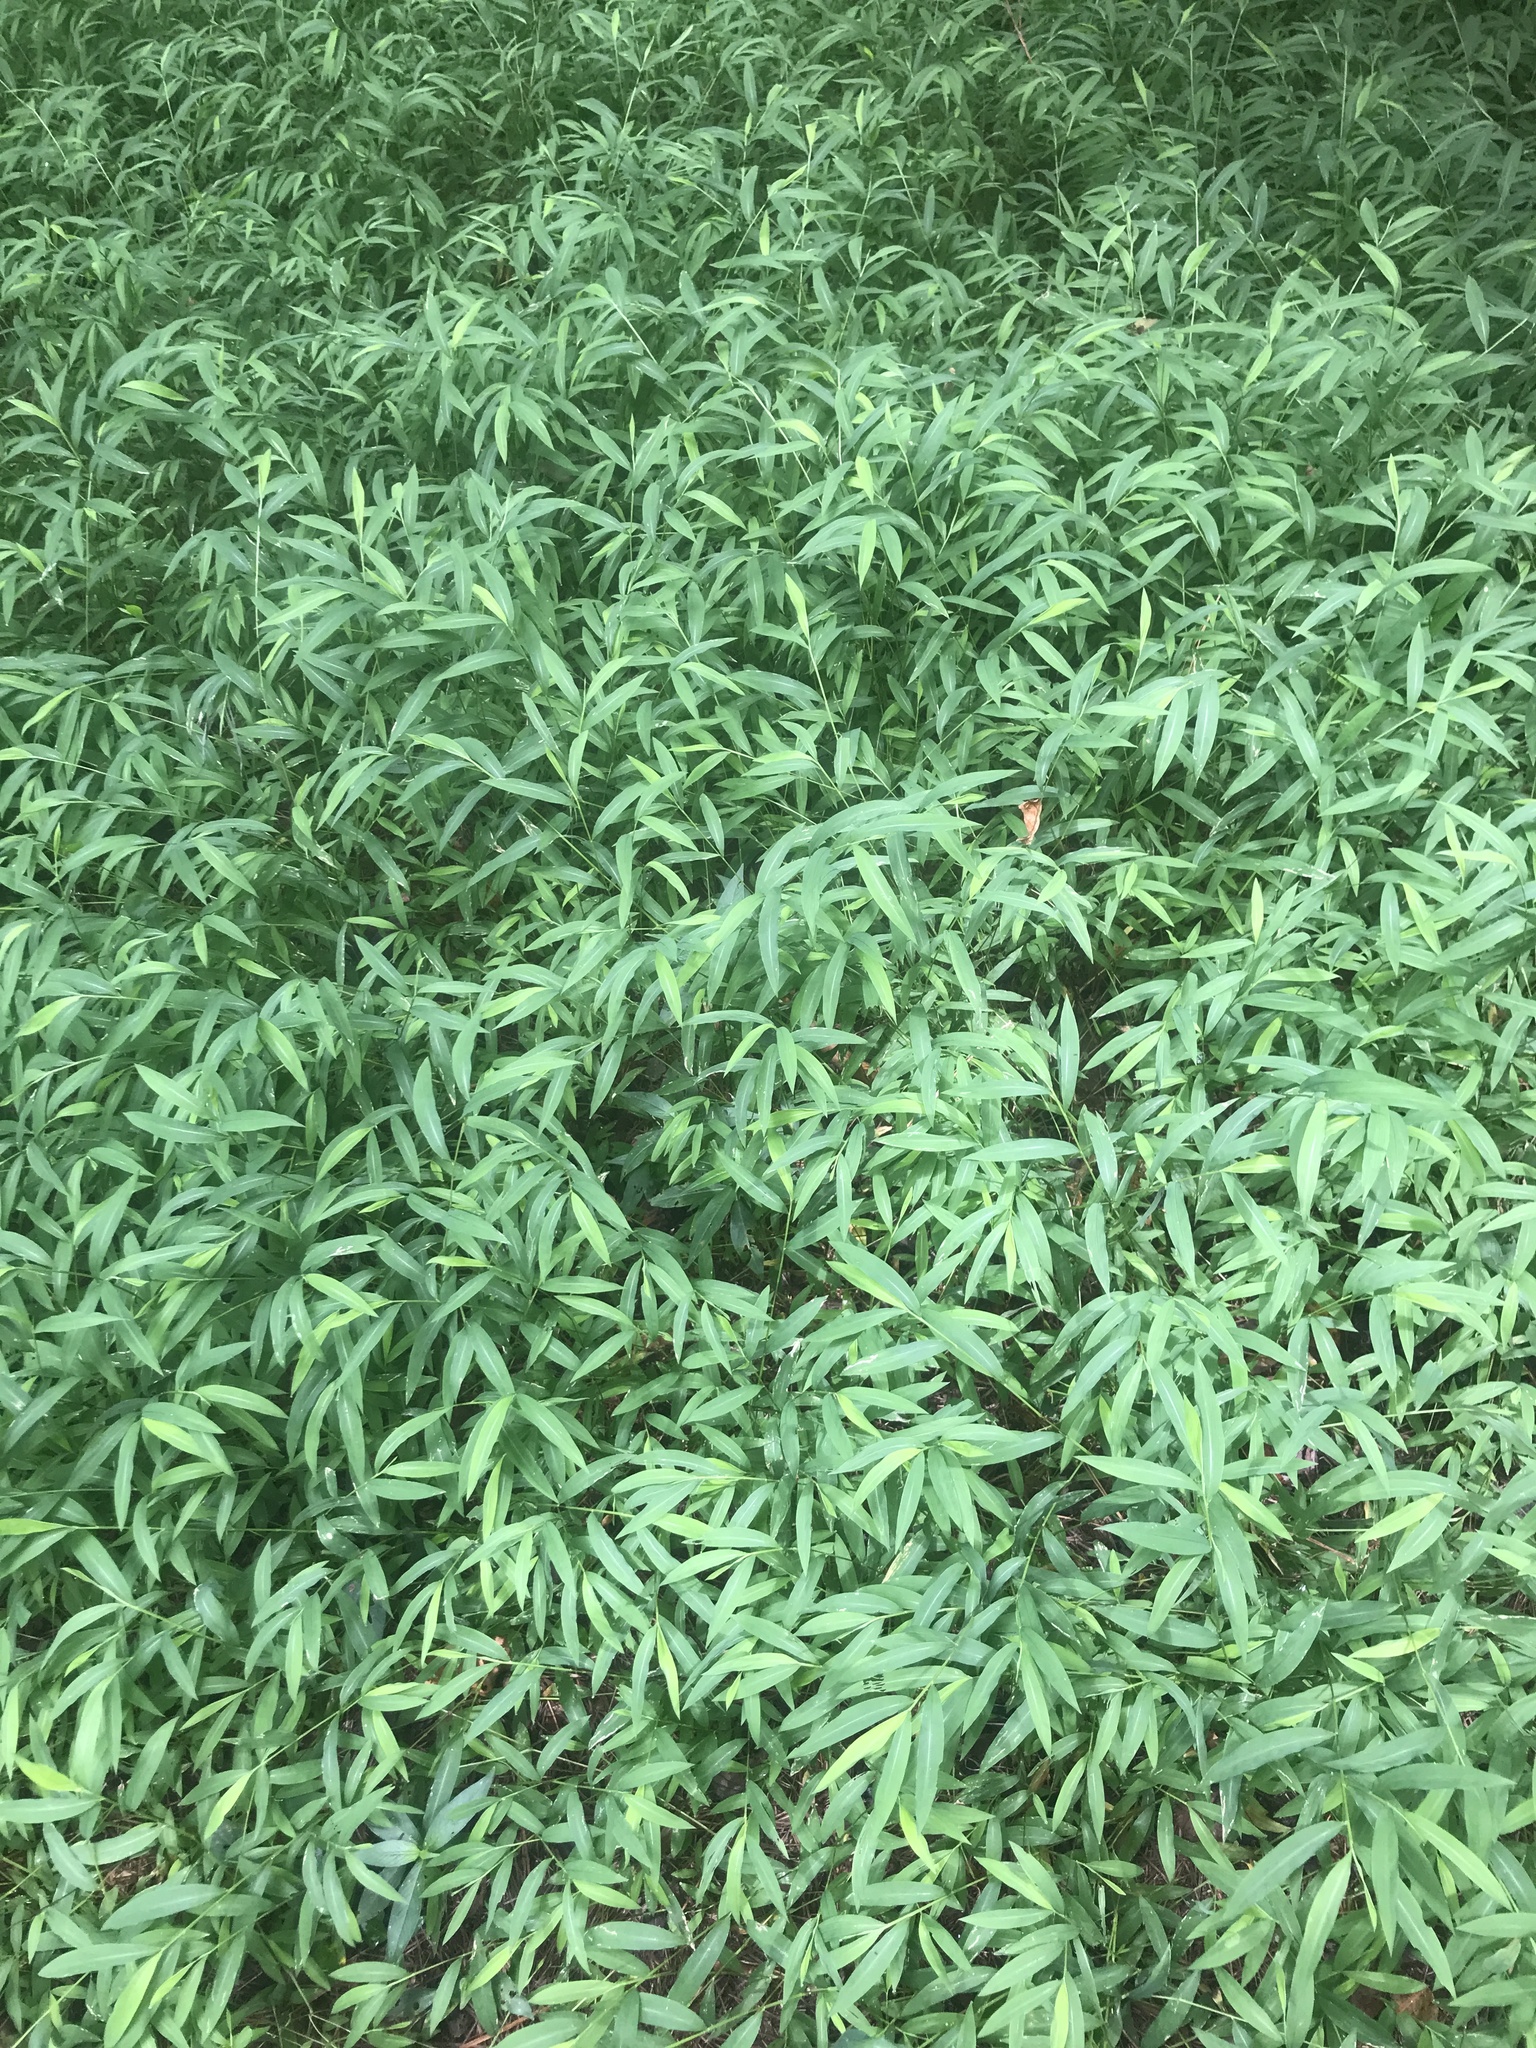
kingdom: Plantae
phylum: Tracheophyta
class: Liliopsida
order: Poales
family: Poaceae
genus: Microstegium
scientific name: Microstegium vimineum
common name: Japanese stiltgrass
